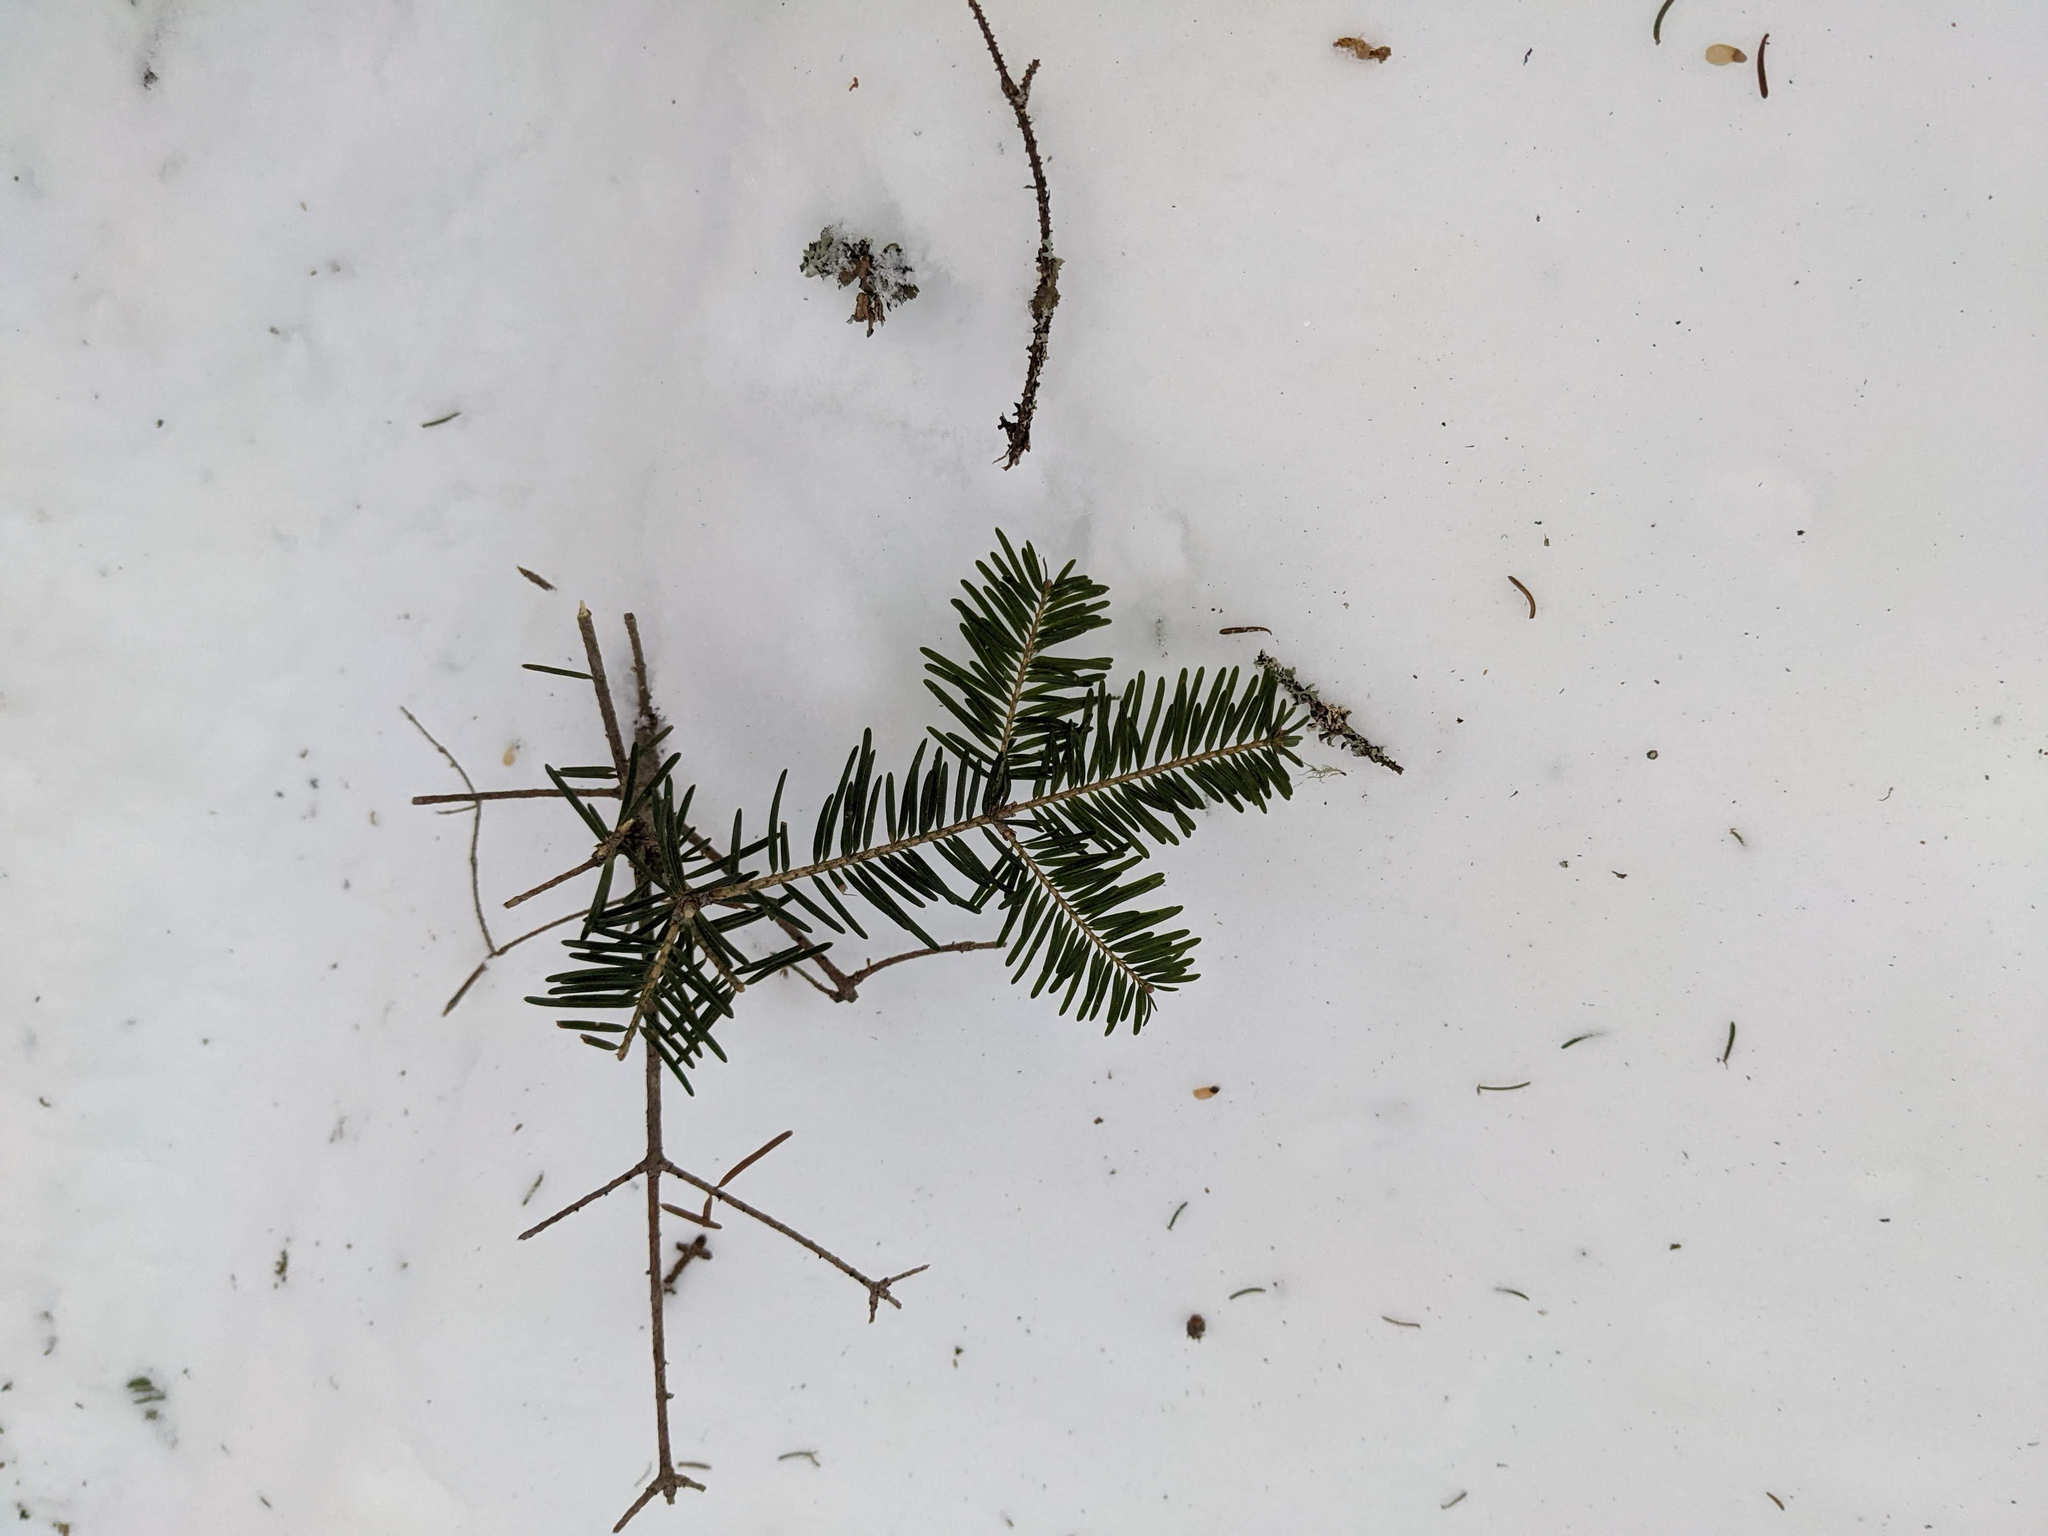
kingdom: Plantae
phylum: Tracheophyta
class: Pinopsida
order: Pinales
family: Pinaceae
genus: Abies
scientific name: Abies balsamea
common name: Balsam fir
